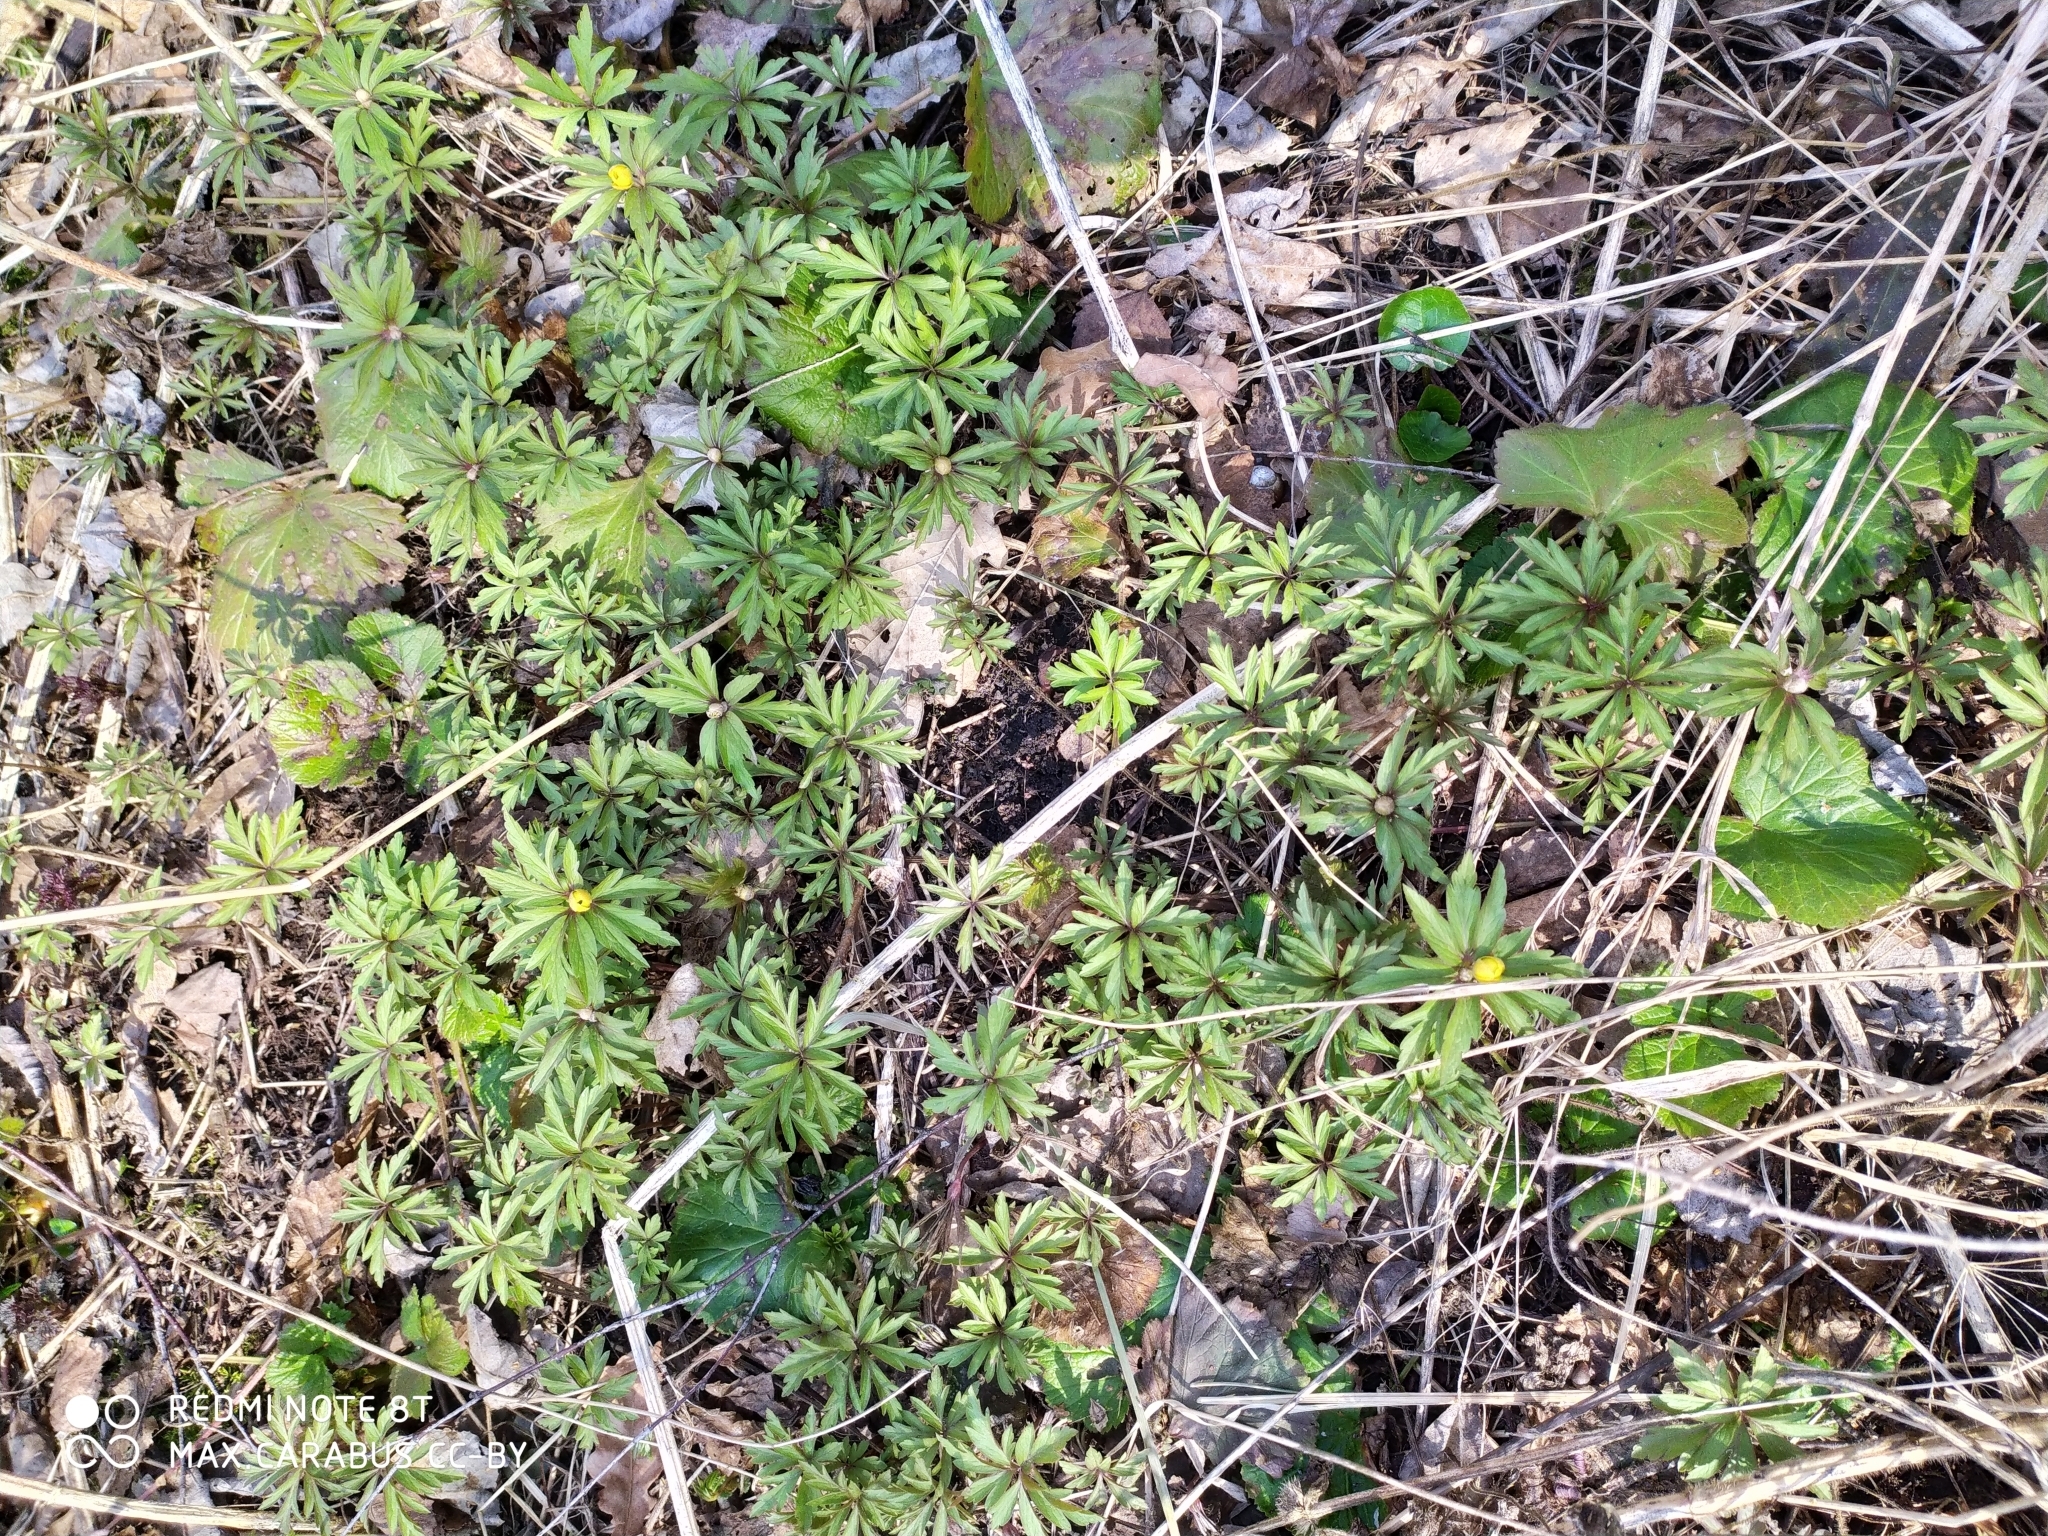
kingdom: Plantae
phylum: Tracheophyta
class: Magnoliopsida
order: Ranunculales
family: Ranunculaceae
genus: Anemone
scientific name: Anemone ranunculoides
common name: Yellow anemone
